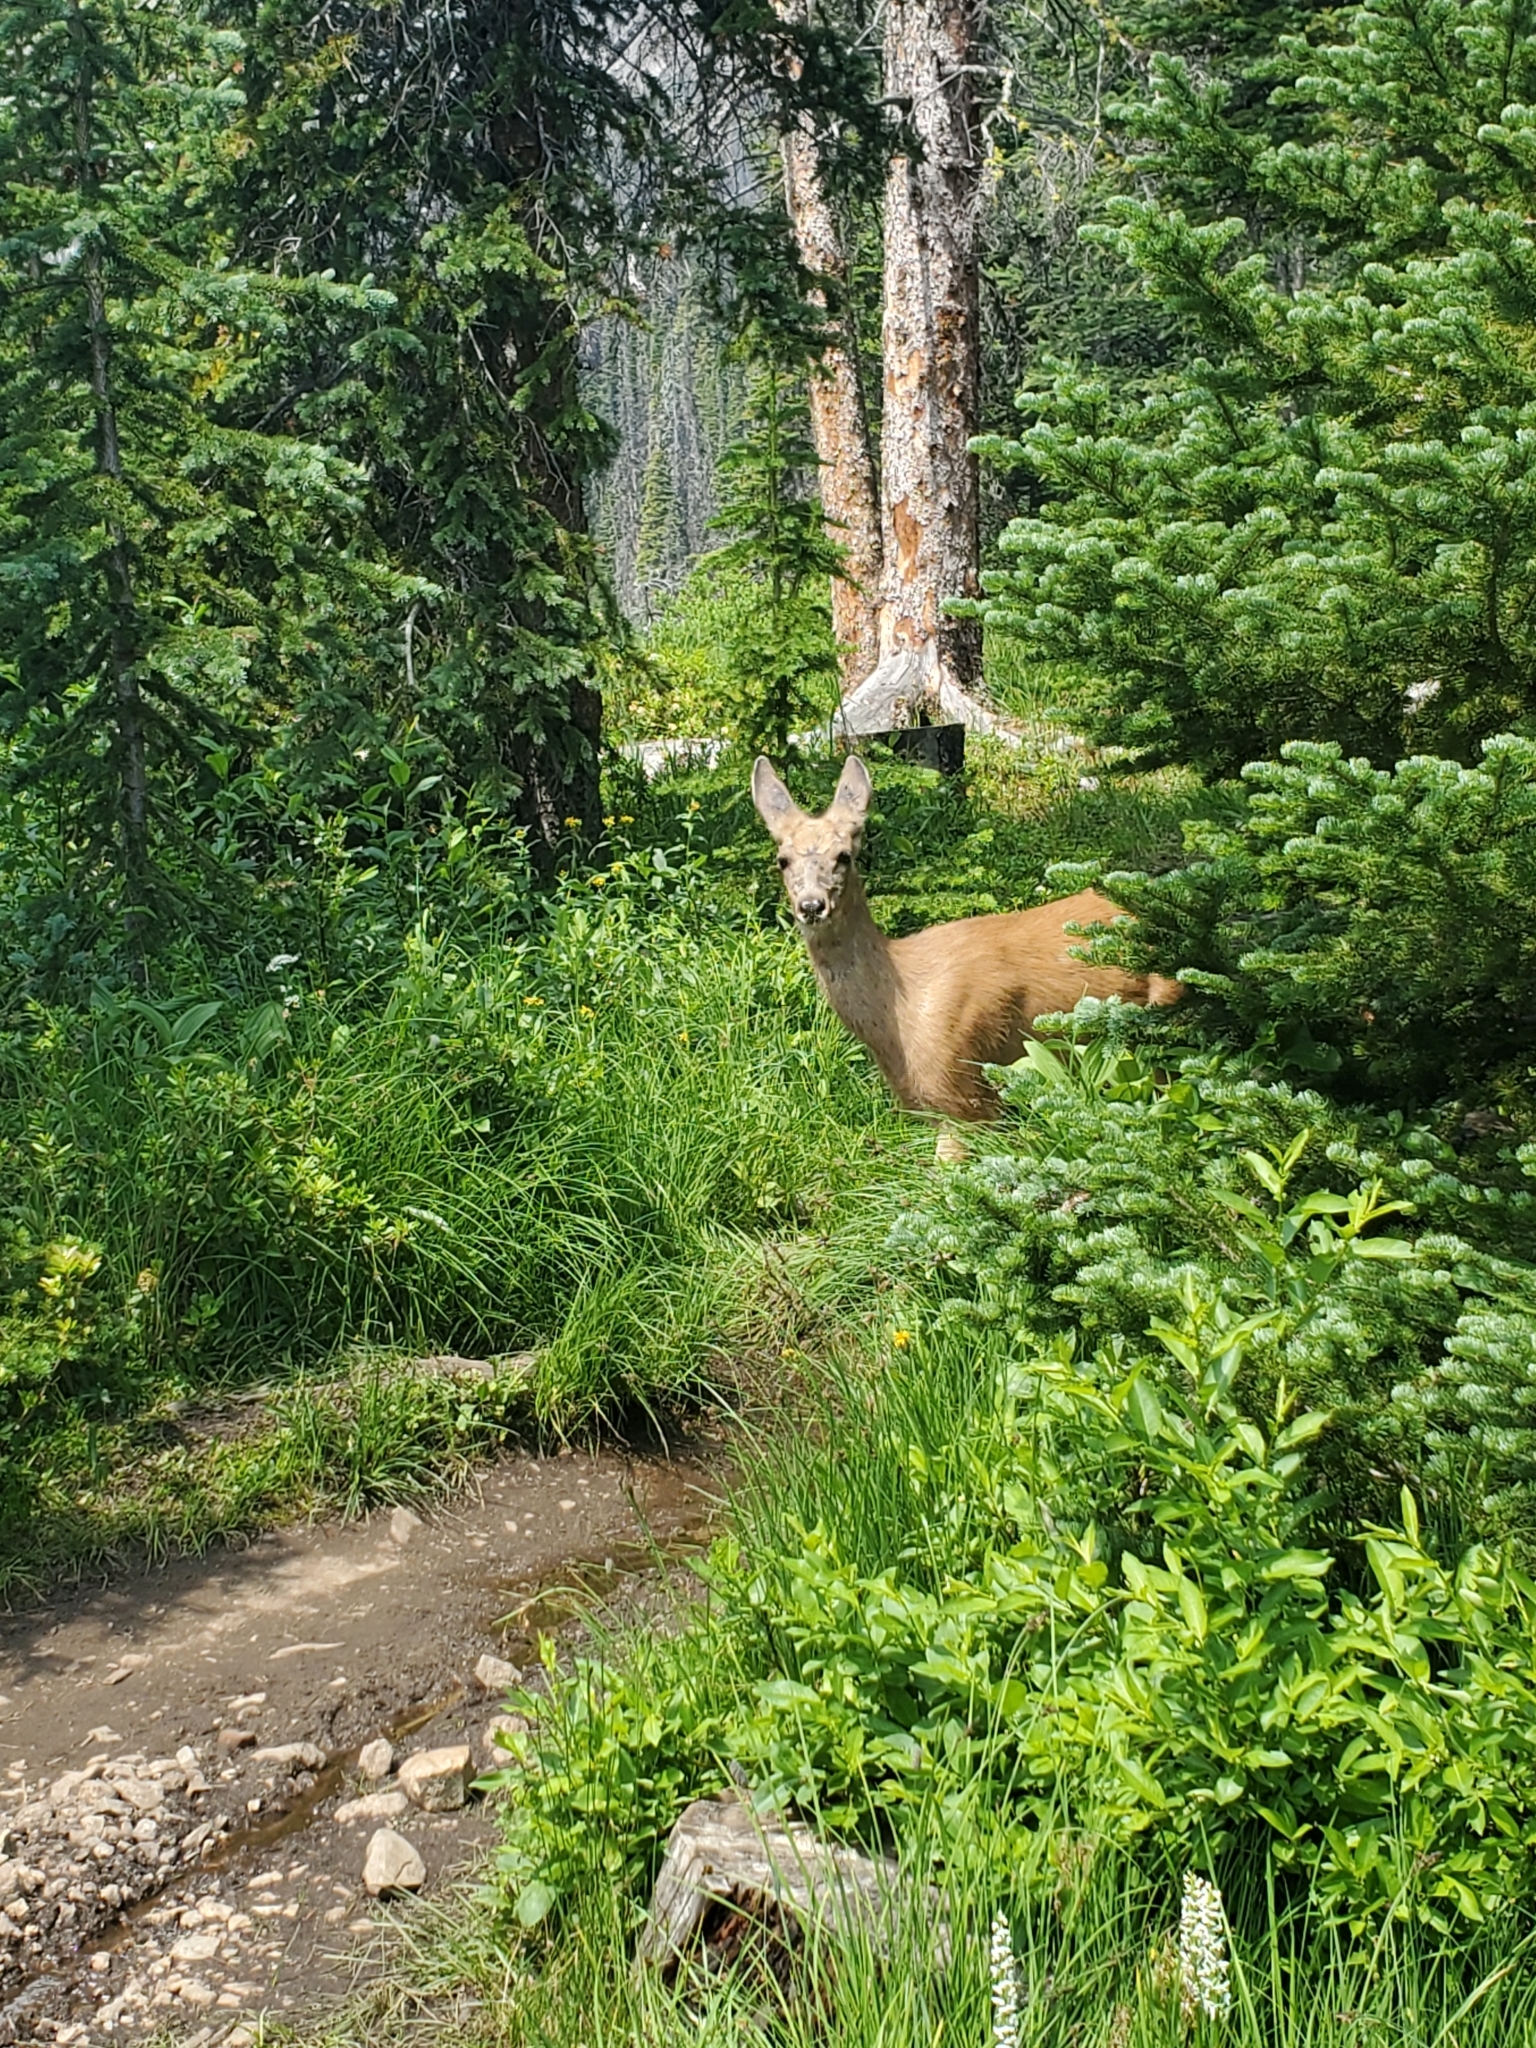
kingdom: Animalia
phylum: Chordata
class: Mammalia
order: Artiodactyla
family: Cervidae
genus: Odocoileus
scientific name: Odocoileus hemionus
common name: Mule deer
